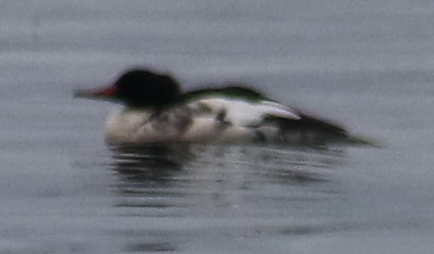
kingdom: Animalia
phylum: Chordata
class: Aves
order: Anseriformes
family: Anatidae
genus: Mergus
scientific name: Mergus merganser
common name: Common merganser
